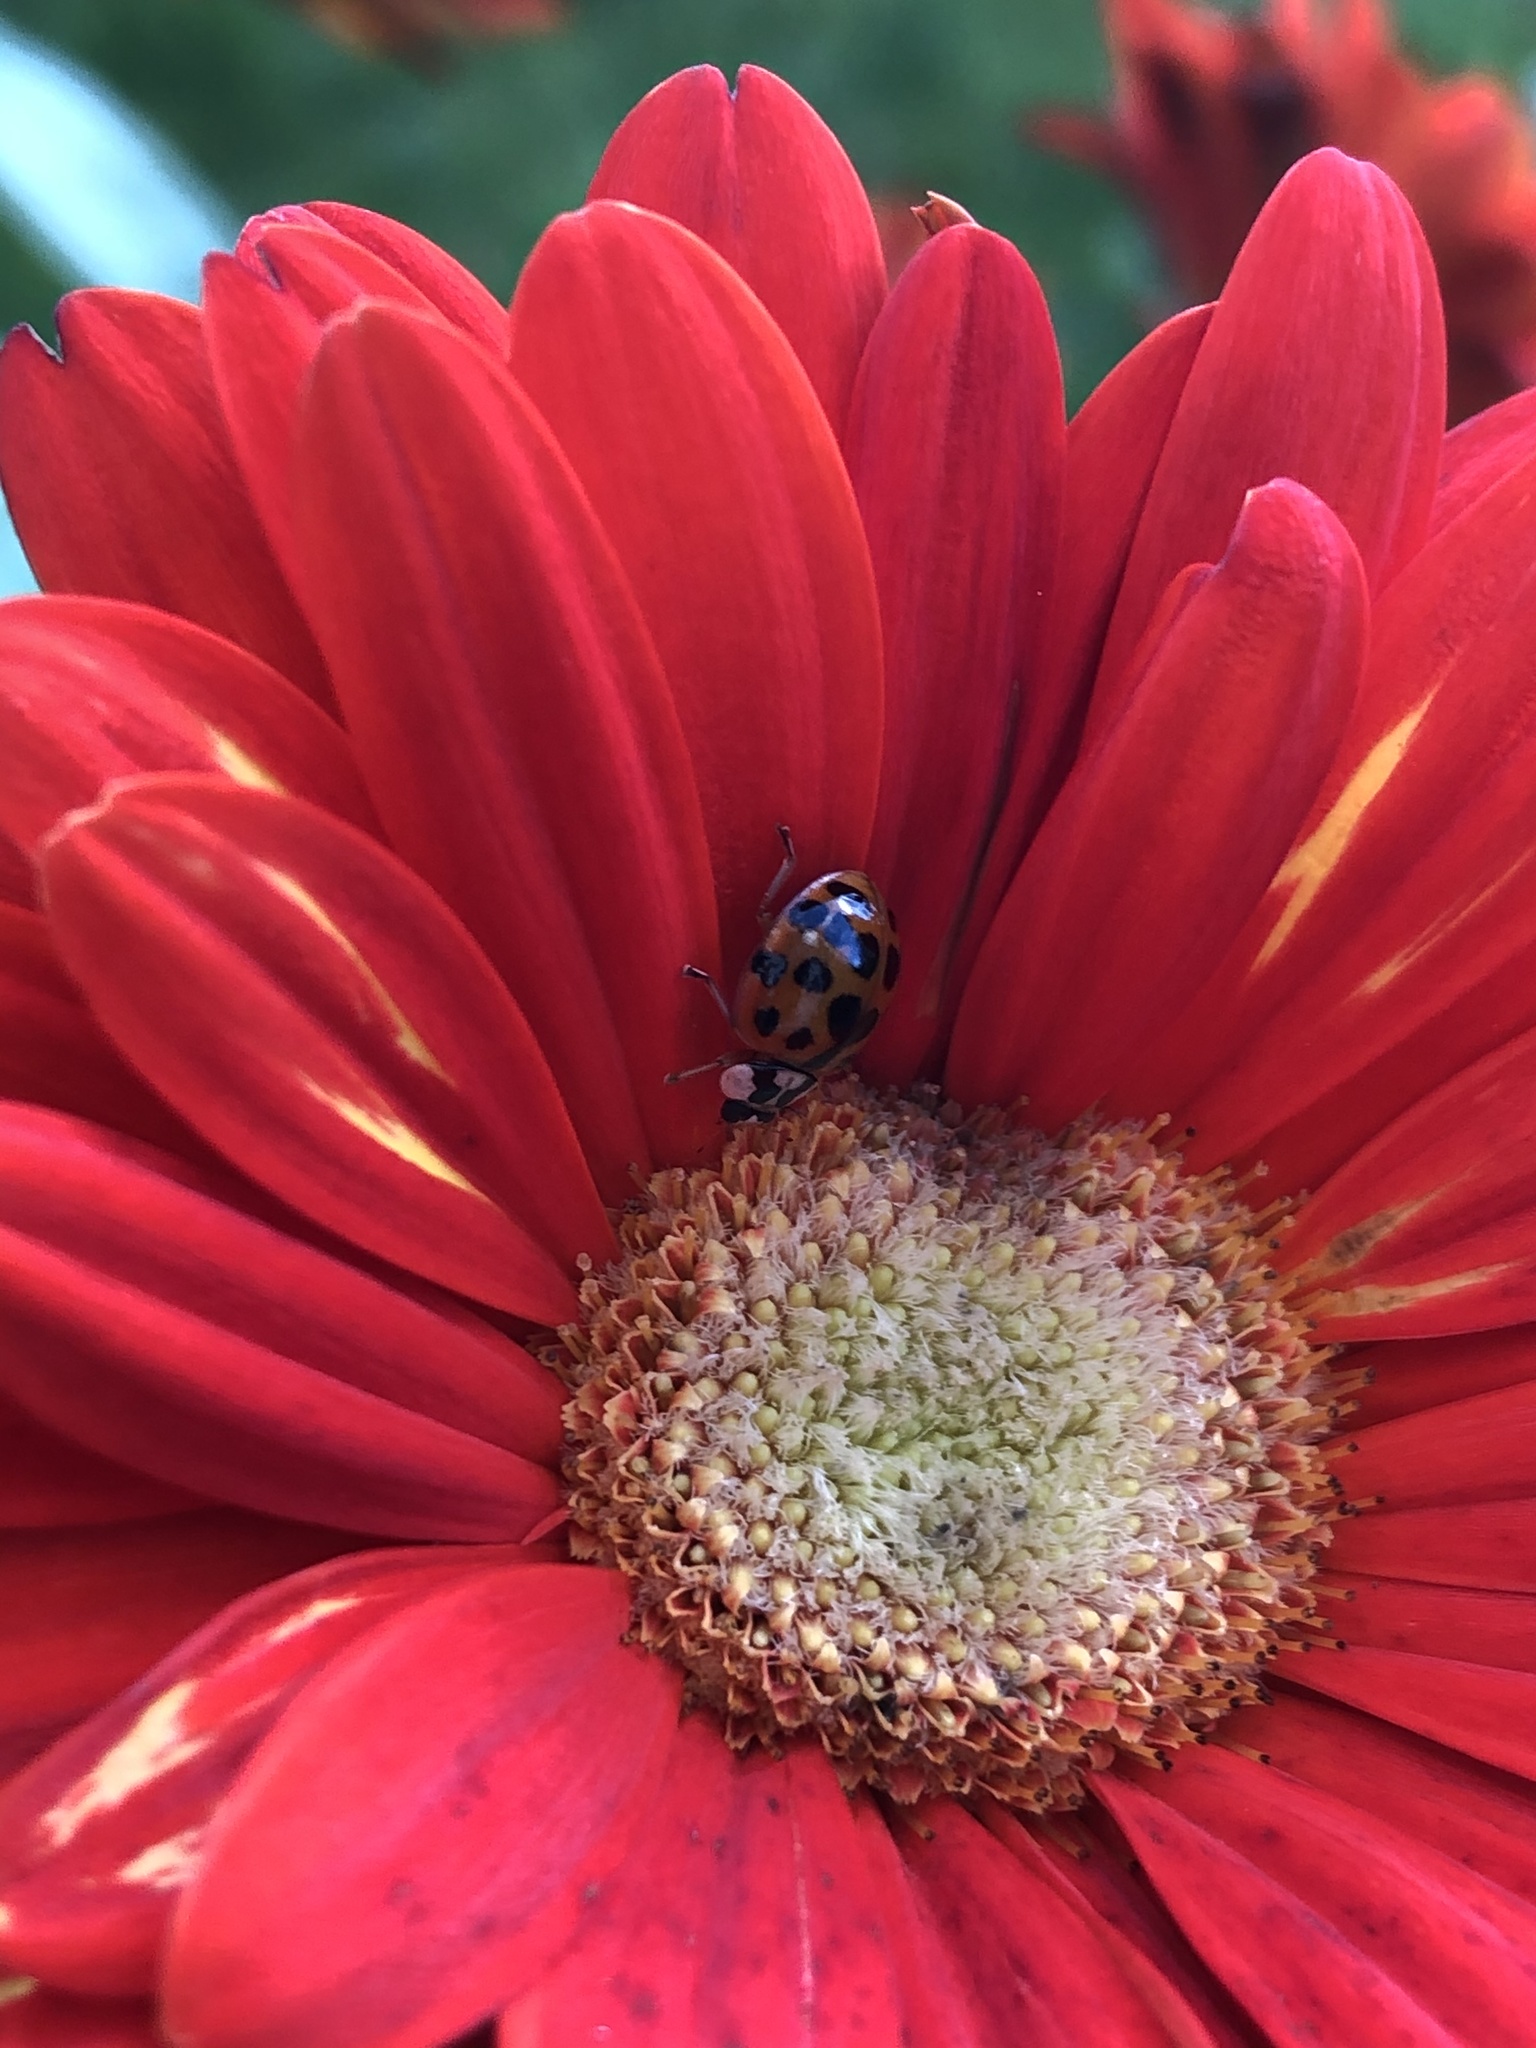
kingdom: Animalia
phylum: Arthropoda
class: Insecta
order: Coleoptera
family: Coccinellidae
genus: Harmonia
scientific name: Harmonia axyridis
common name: Harlequin ladybird
